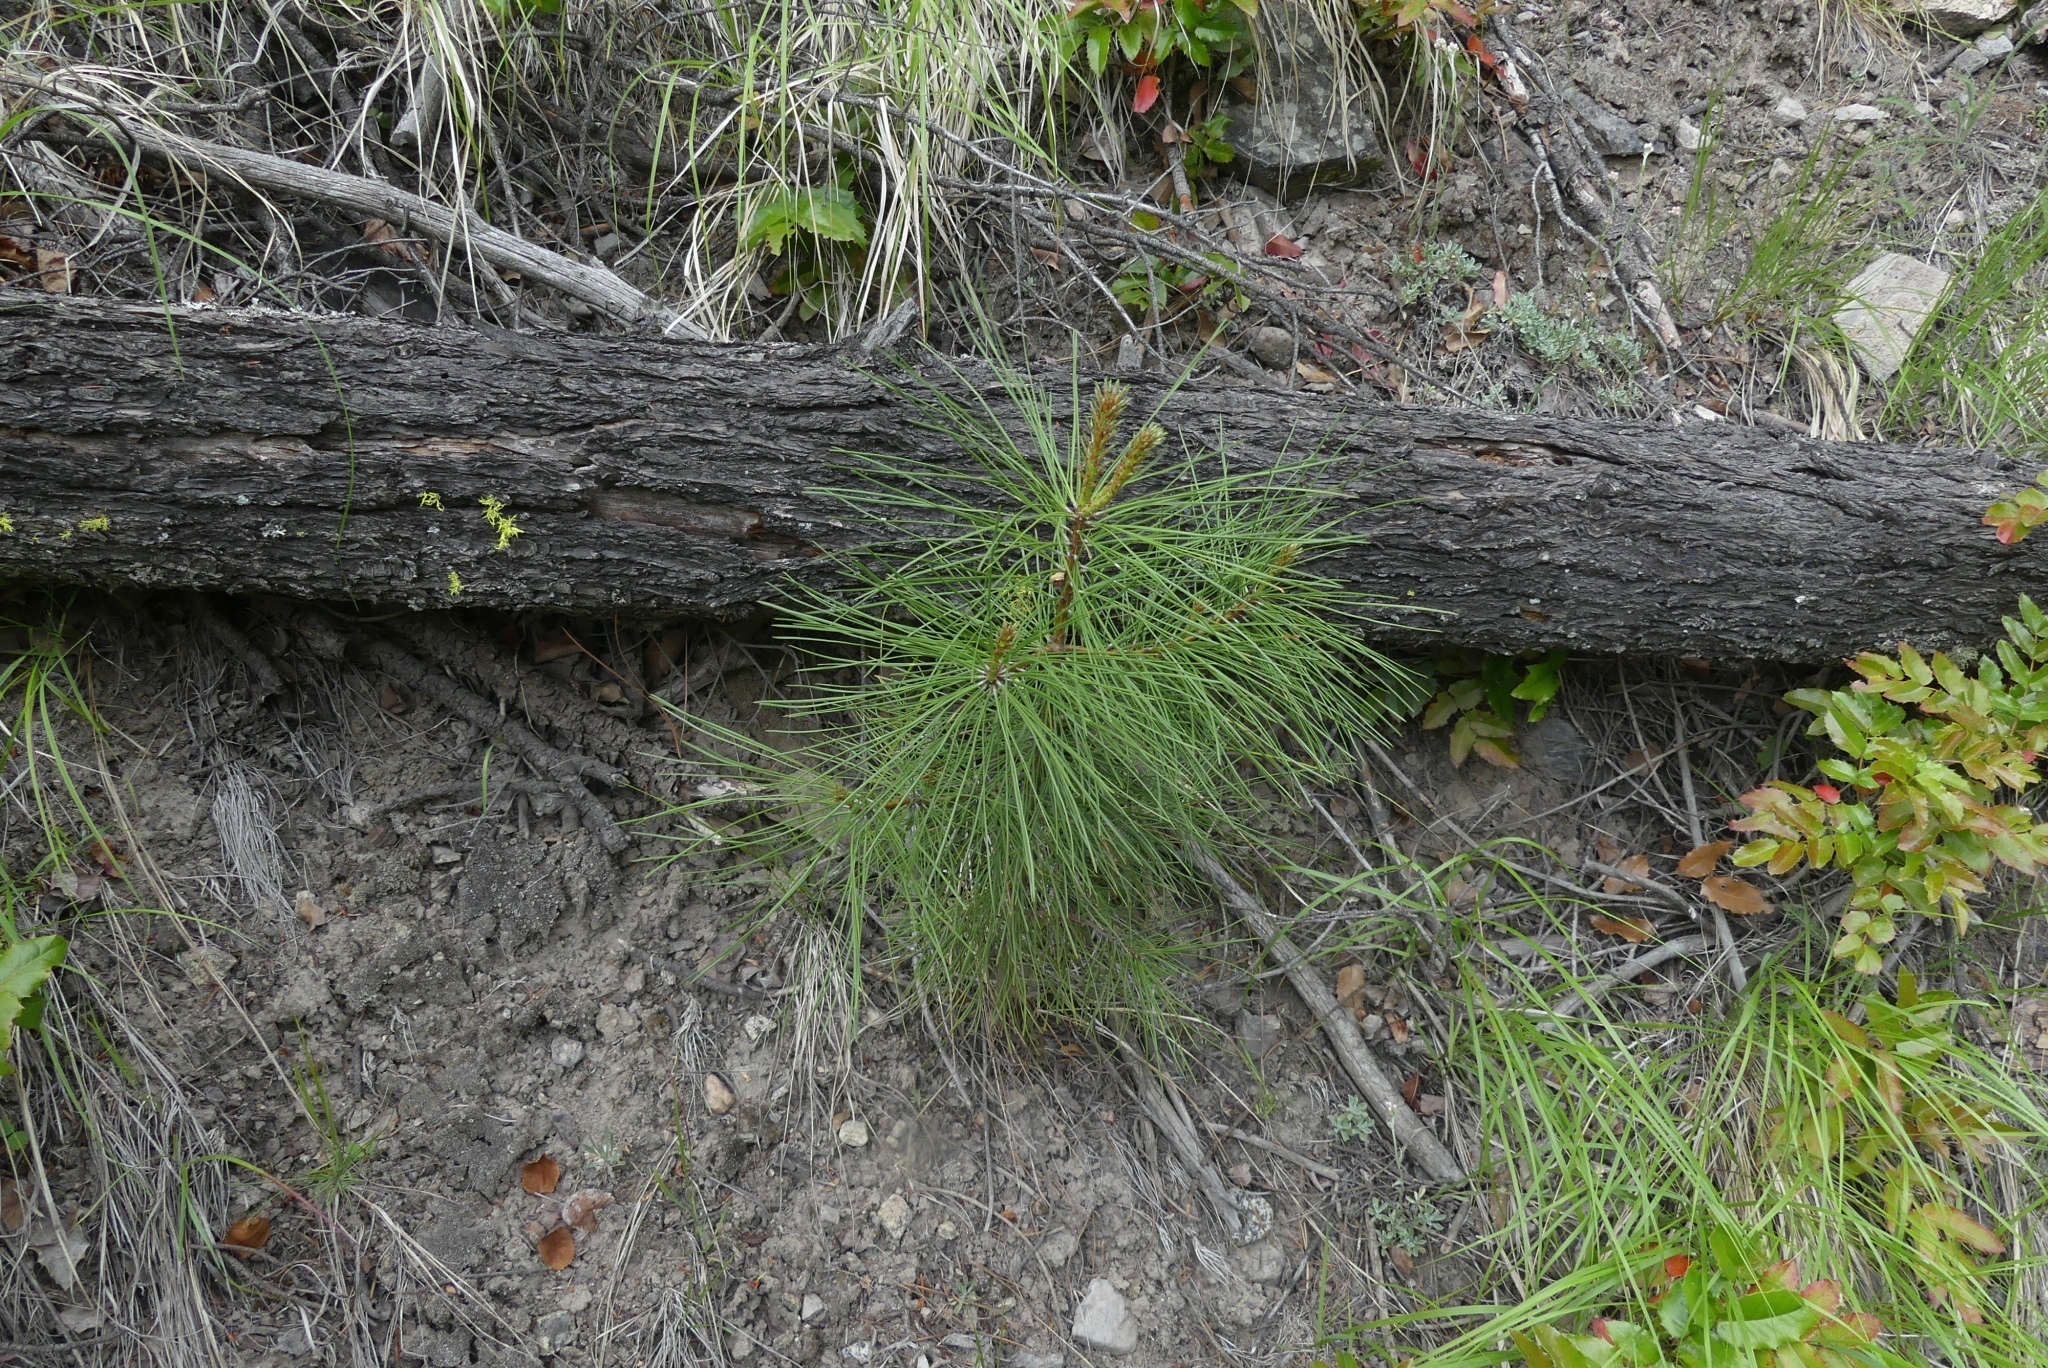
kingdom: Plantae
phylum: Tracheophyta
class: Pinopsida
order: Pinales
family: Pinaceae
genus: Pinus
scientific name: Pinus ponderosa
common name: Western yellow-pine
